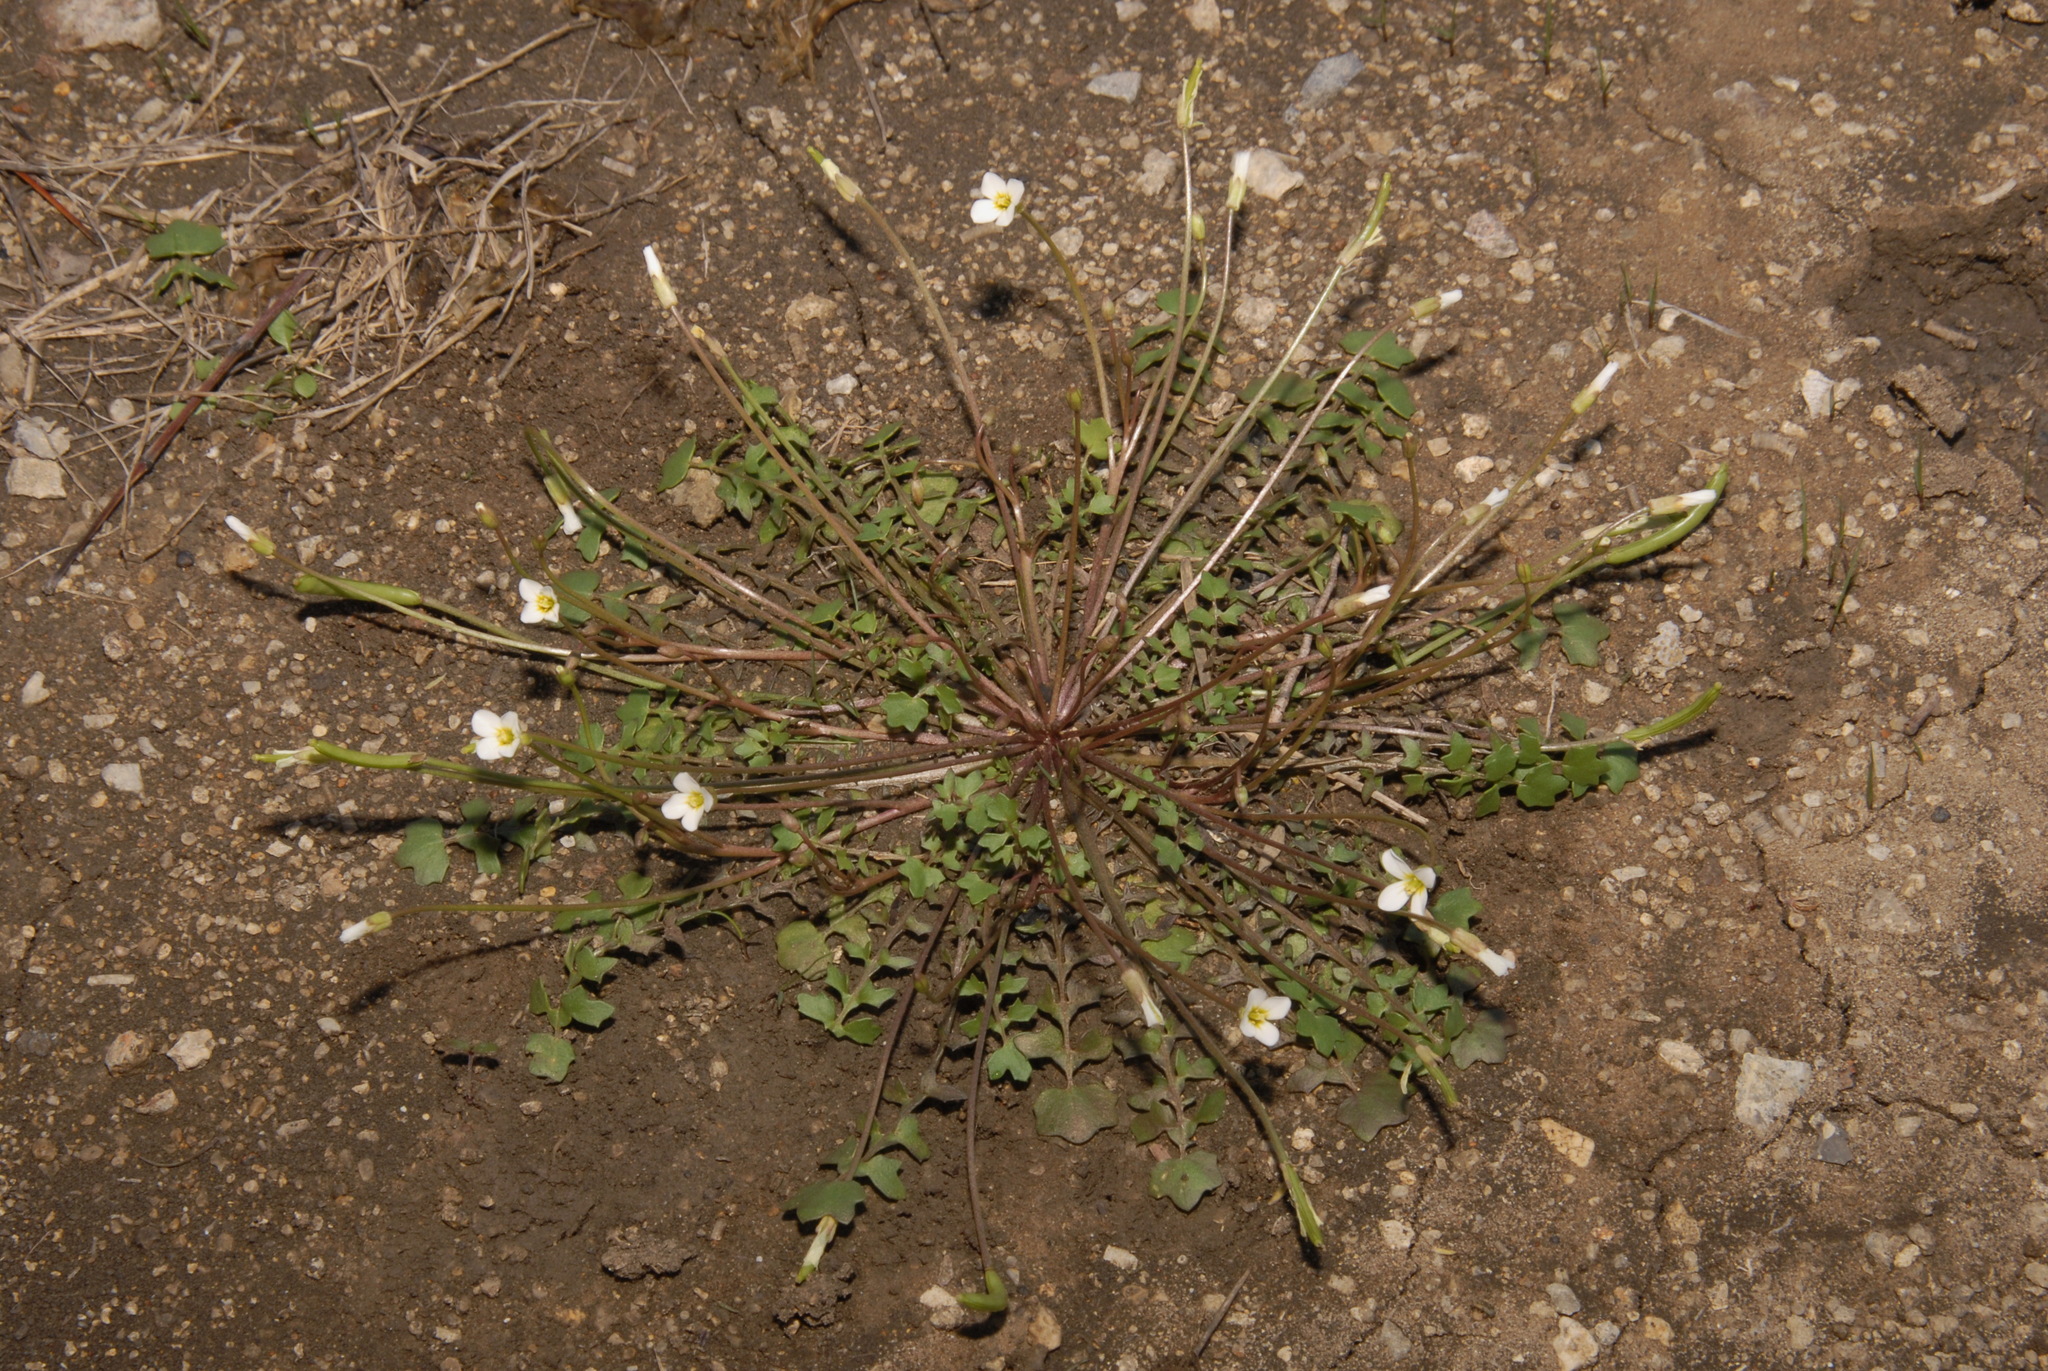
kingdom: Plantae
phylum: Tracheophyta
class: Magnoliopsida
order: Brassicales
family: Brassicaceae
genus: Leavenworthia
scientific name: Leavenworthia uniflora
